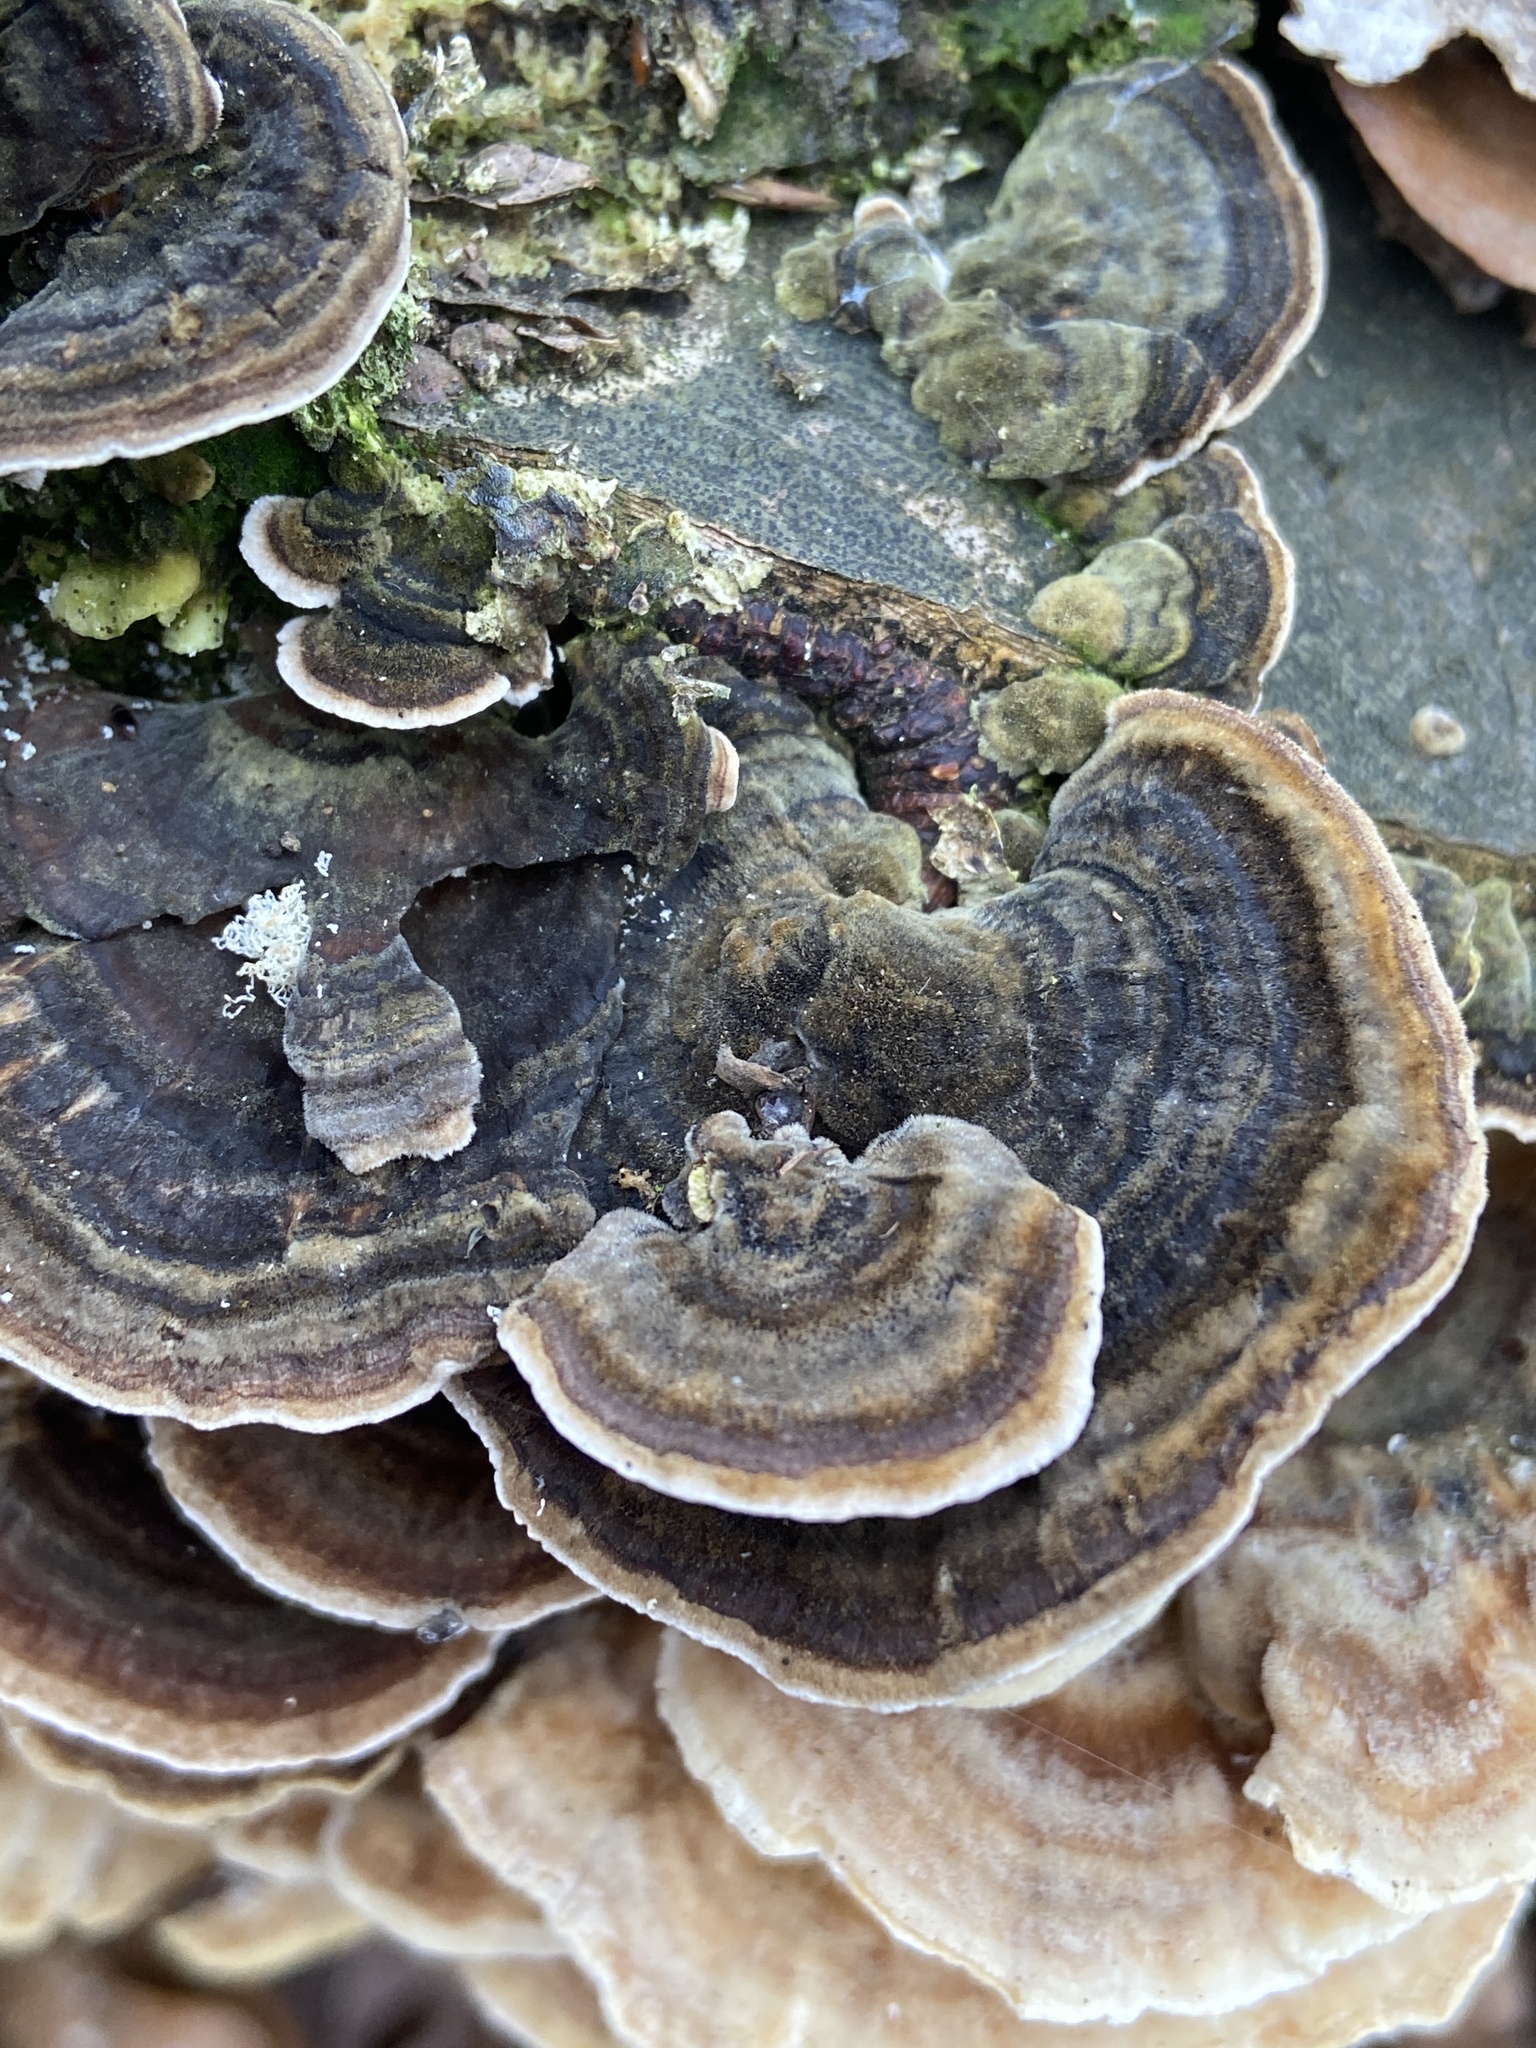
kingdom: Fungi
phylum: Basidiomycota
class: Agaricomycetes
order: Polyporales
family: Polyporaceae
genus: Trametes
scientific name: Trametes versicolor
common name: Turkeytail
